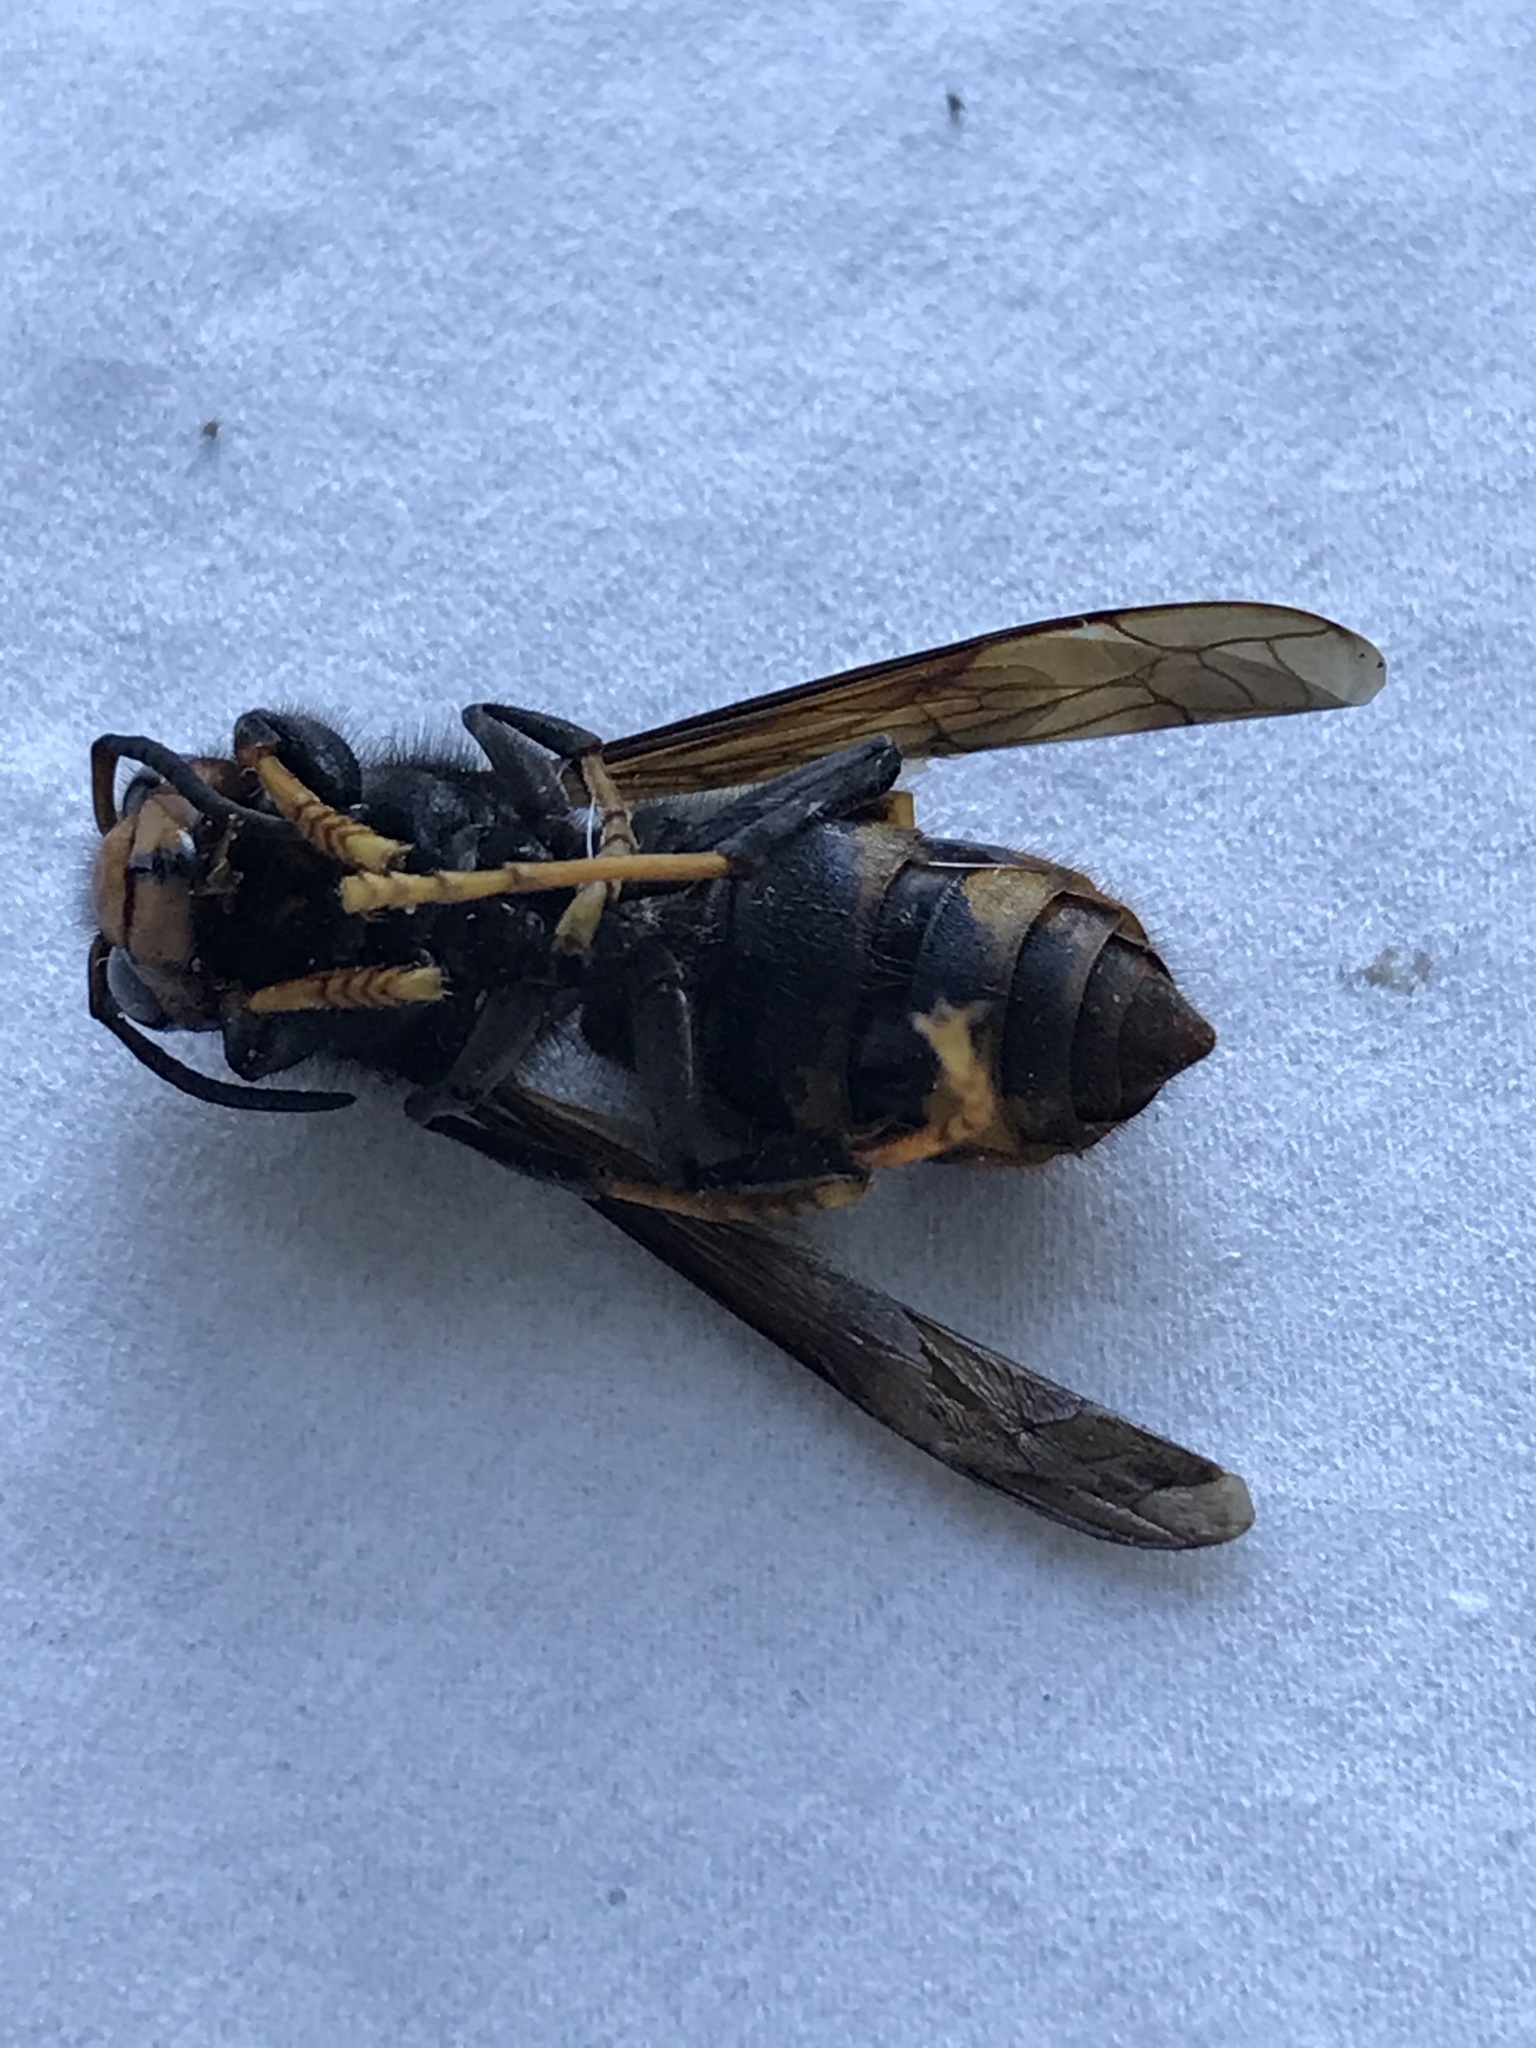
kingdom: Animalia
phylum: Arthropoda
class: Insecta
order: Hymenoptera
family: Vespidae
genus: Vespa
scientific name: Vespa velutina
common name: Asian hornet
